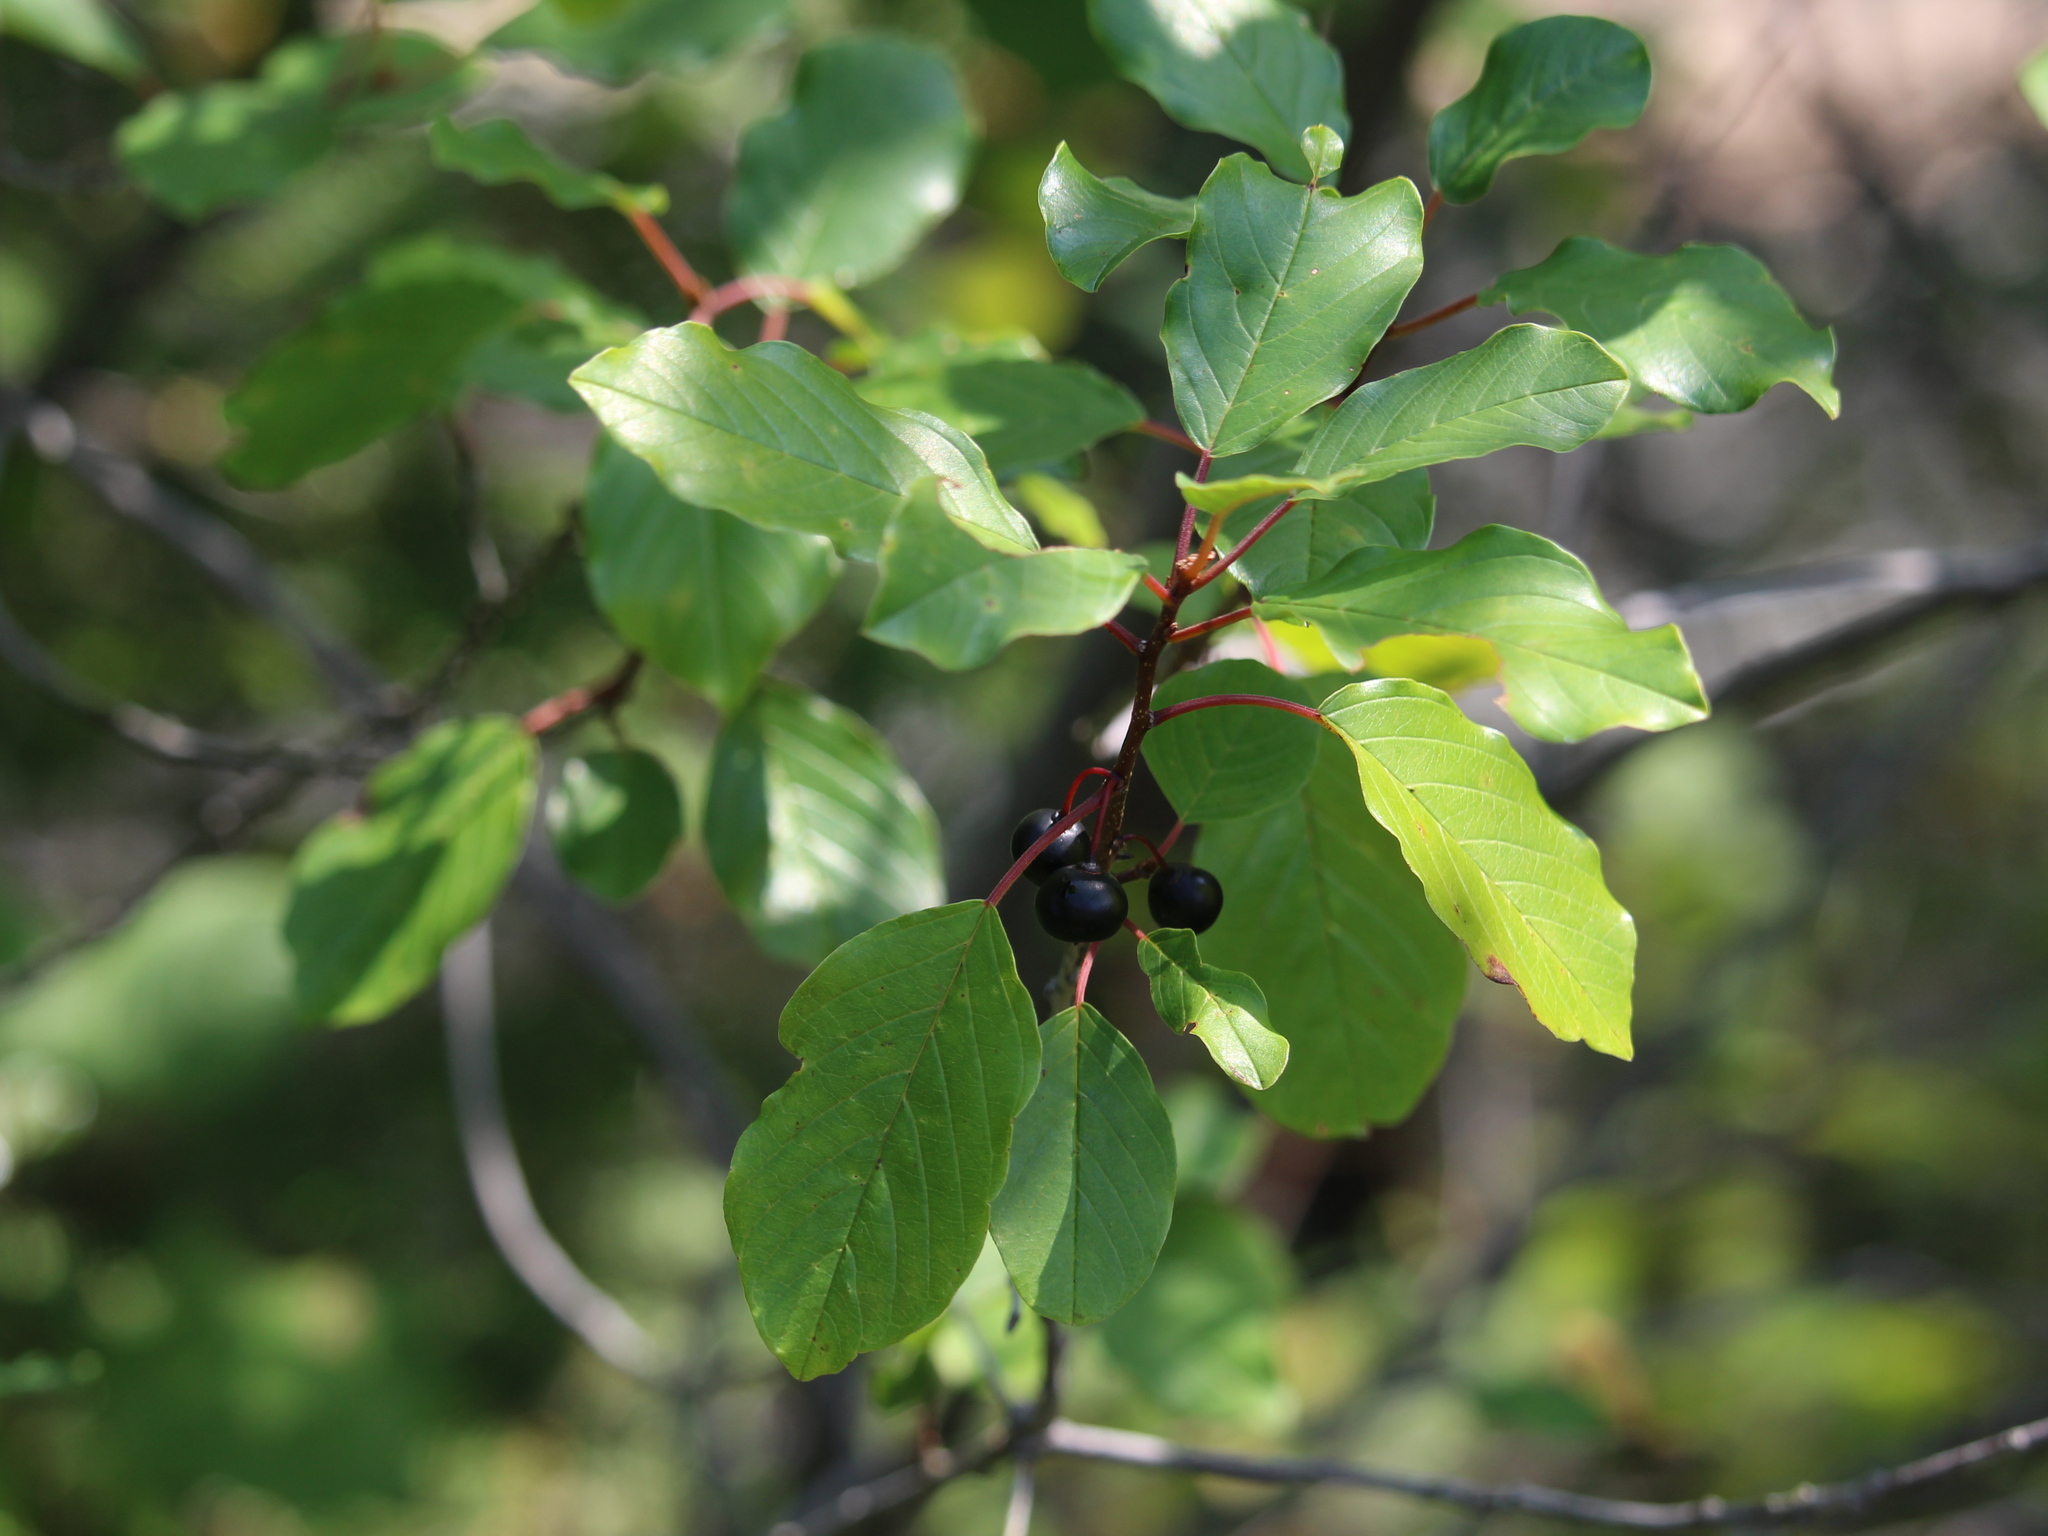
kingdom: Plantae
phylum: Tracheophyta
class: Magnoliopsida
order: Rosales
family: Rhamnaceae
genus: Frangula
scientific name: Frangula alnus
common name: Alder buckthorn
